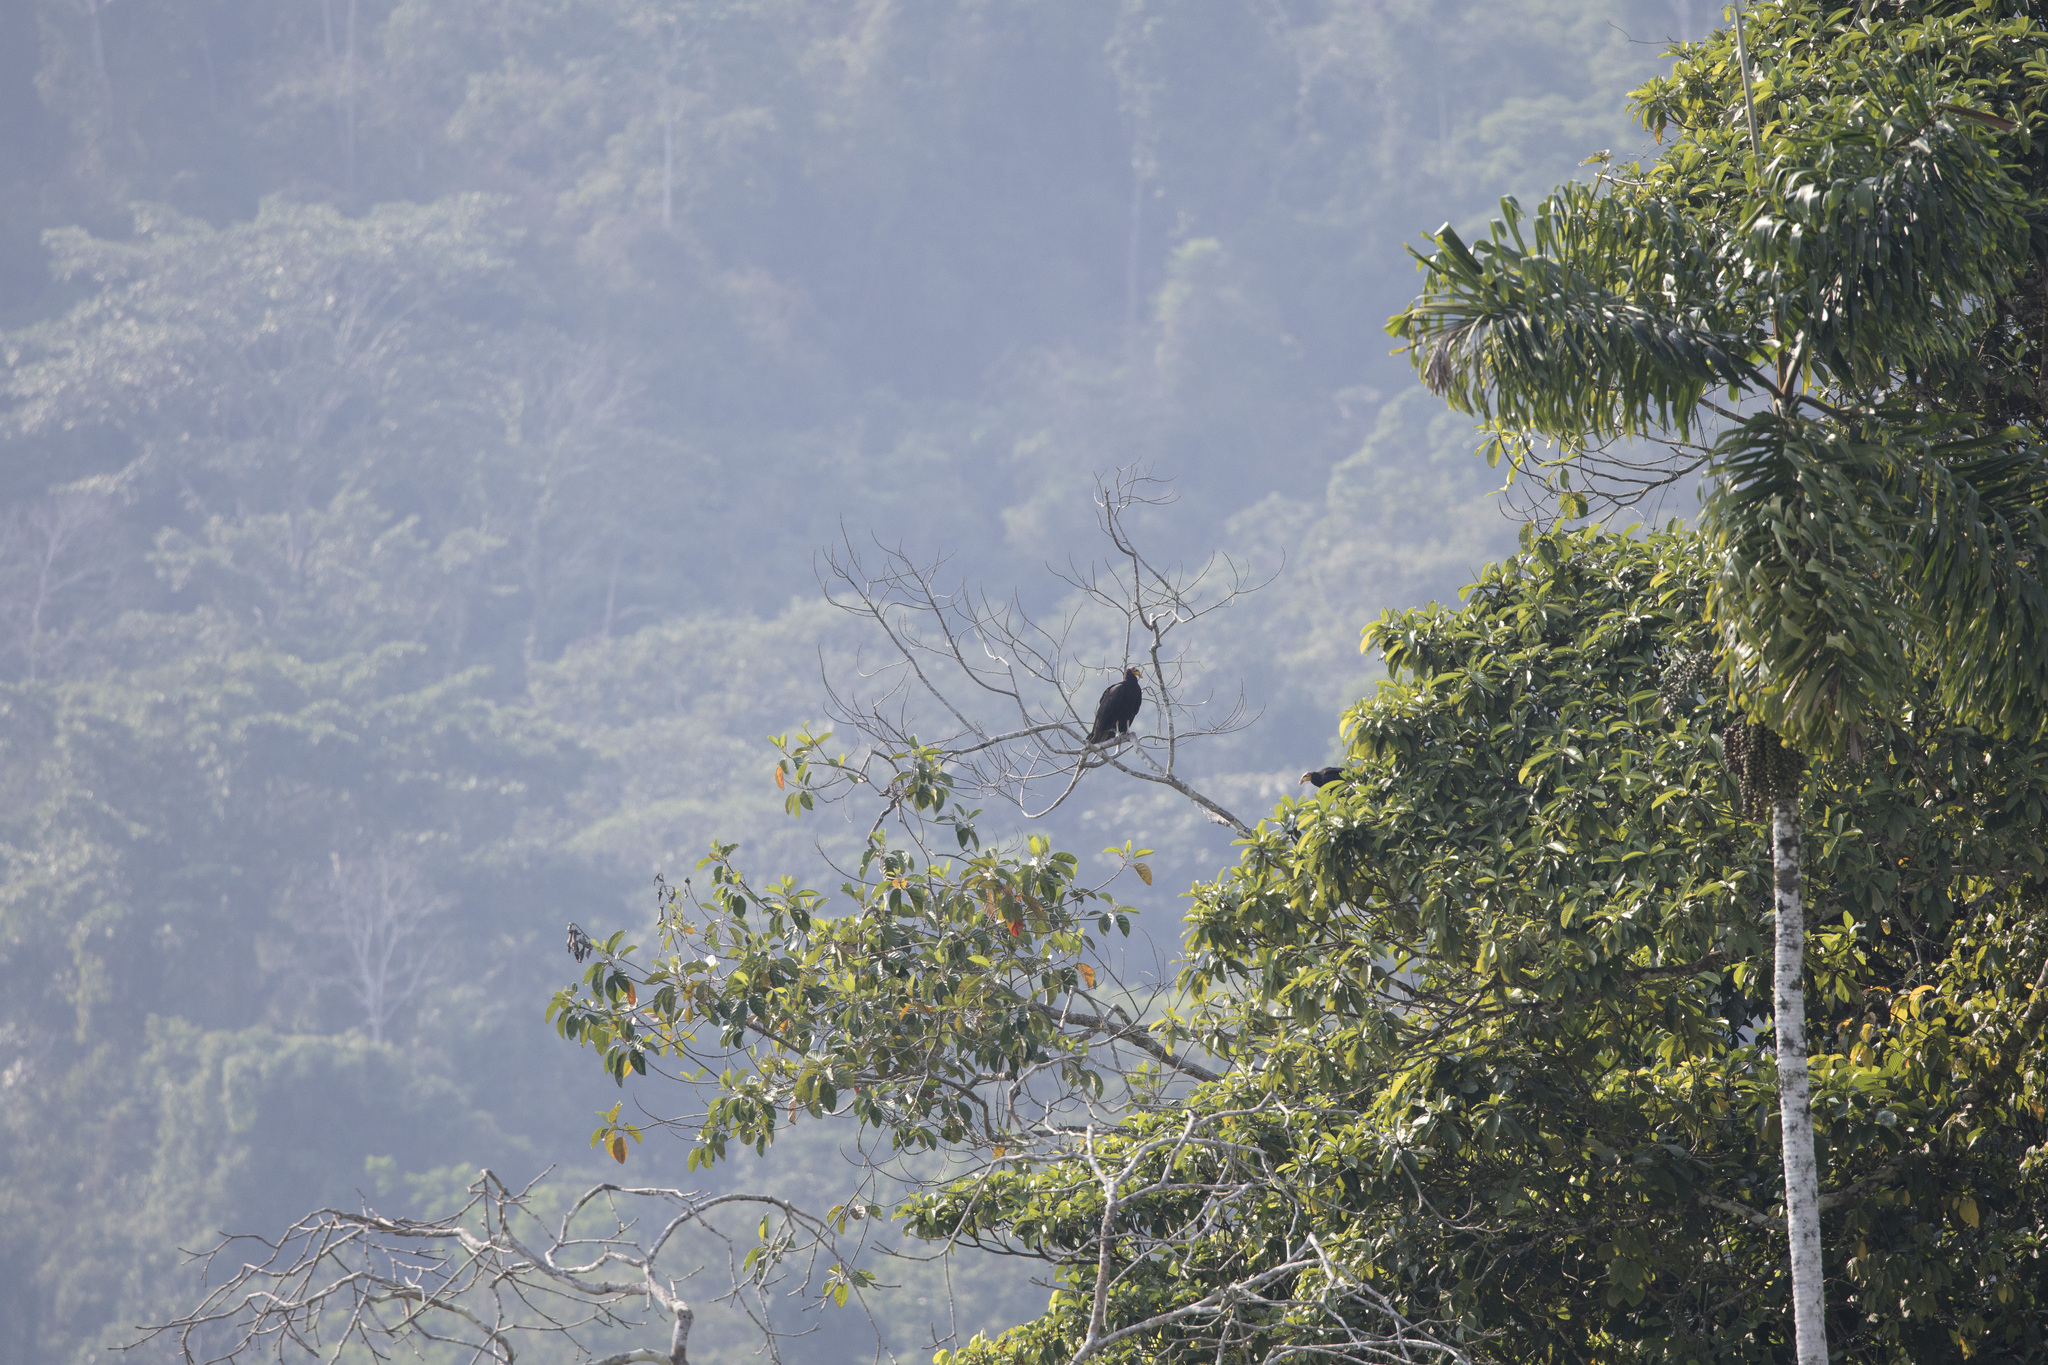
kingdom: Animalia
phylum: Chordata
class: Aves
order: Accipitriformes
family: Cathartidae
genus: Cathartes
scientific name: Cathartes melambrotus
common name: Greater yellow-headed vulture
